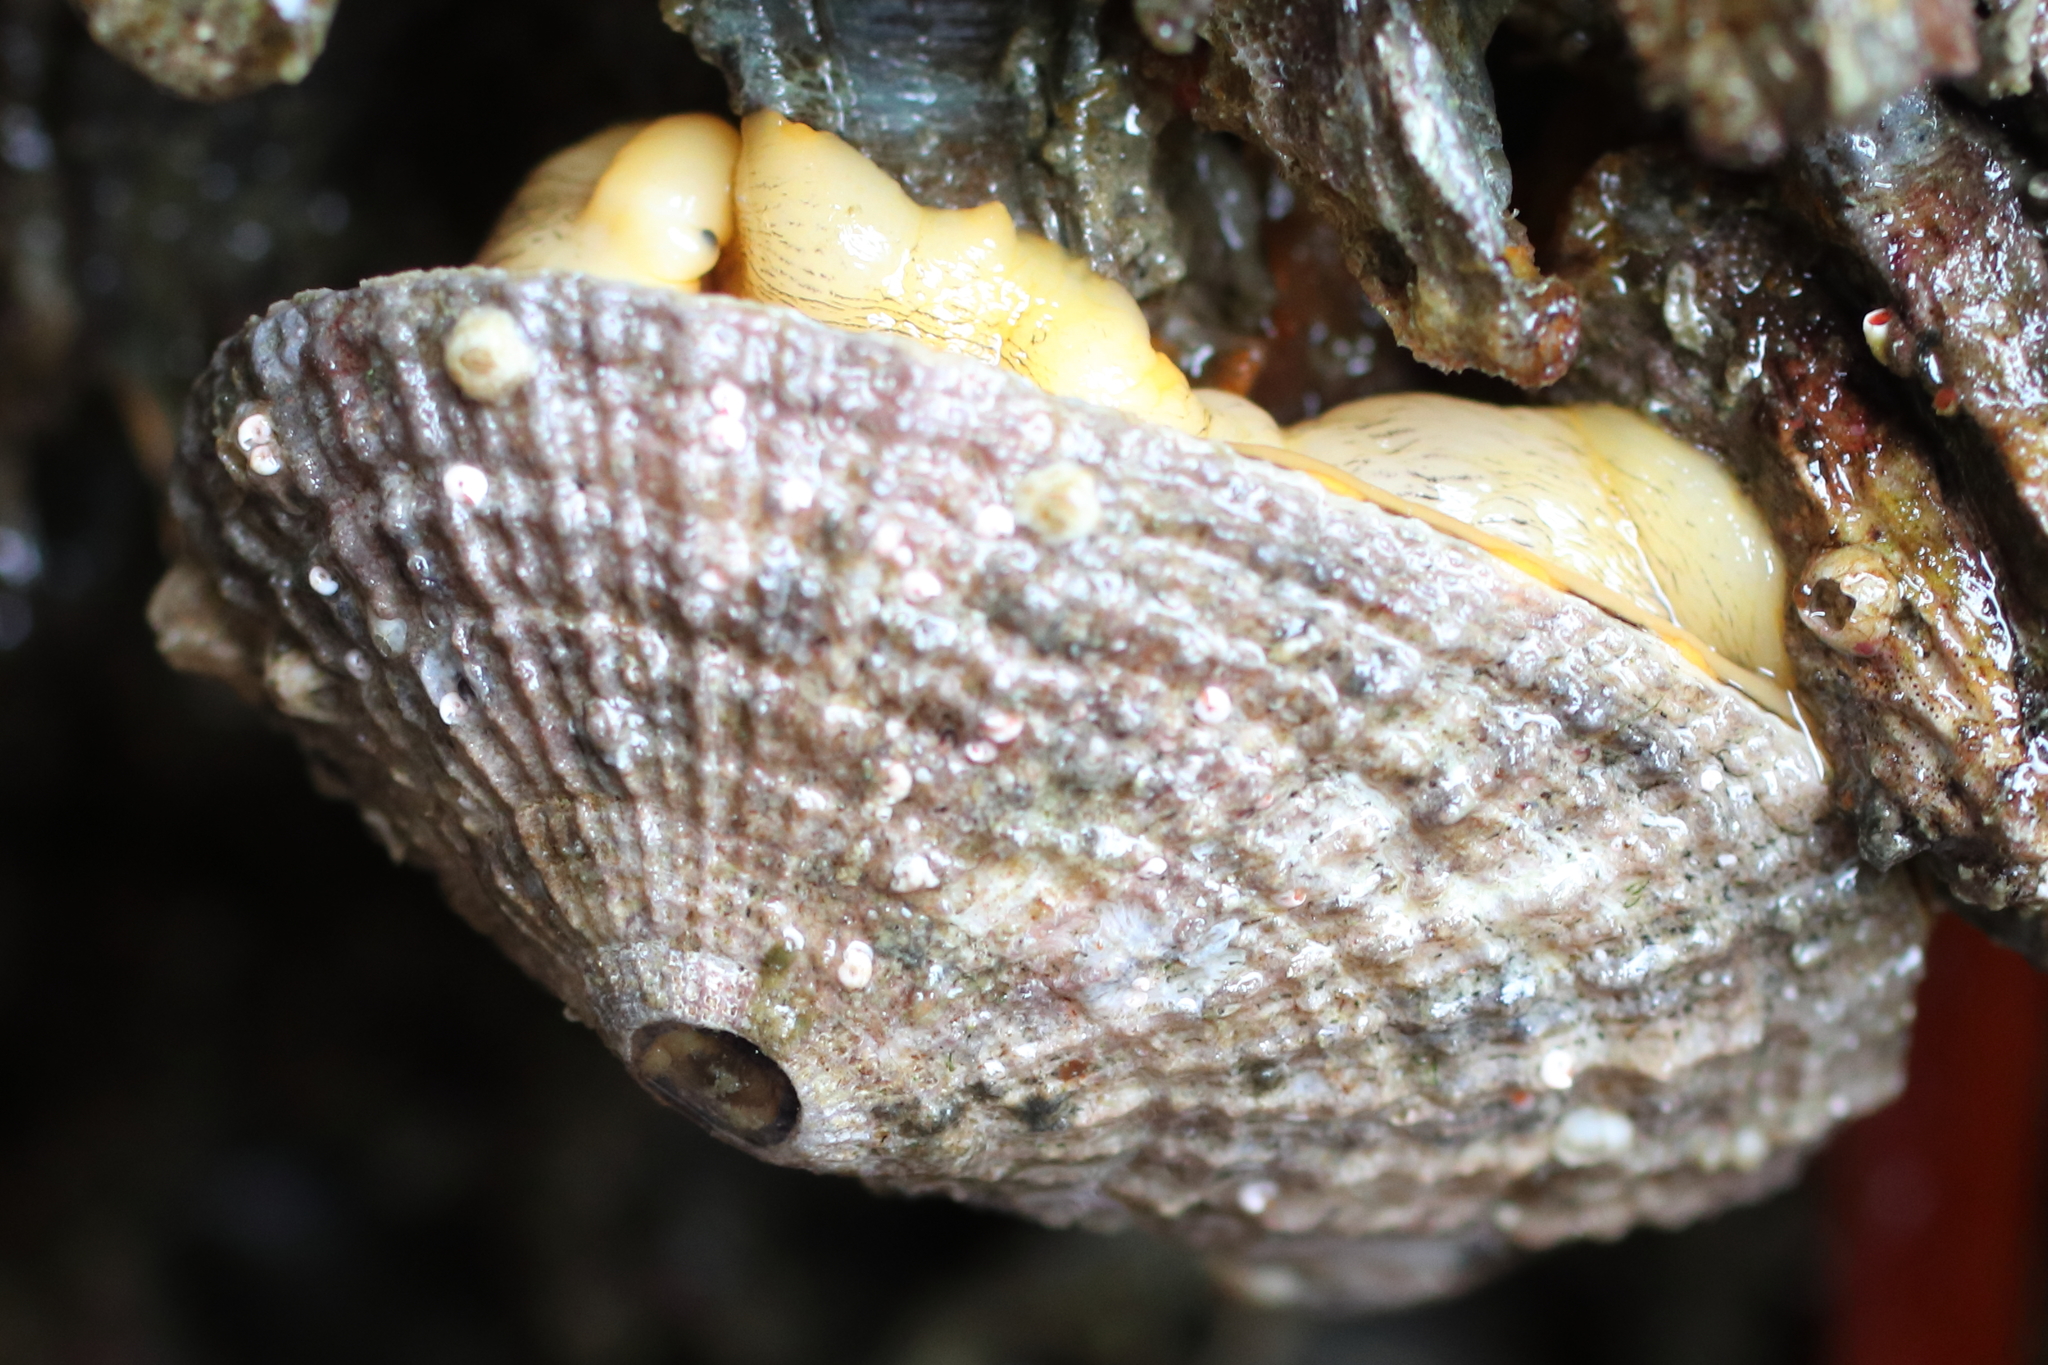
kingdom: Animalia
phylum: Mollusca
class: Gastropoda
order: Lepetellida
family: Fissurellidae
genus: Diodora
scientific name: Diodora aspera
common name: Rough keyhole limpet
